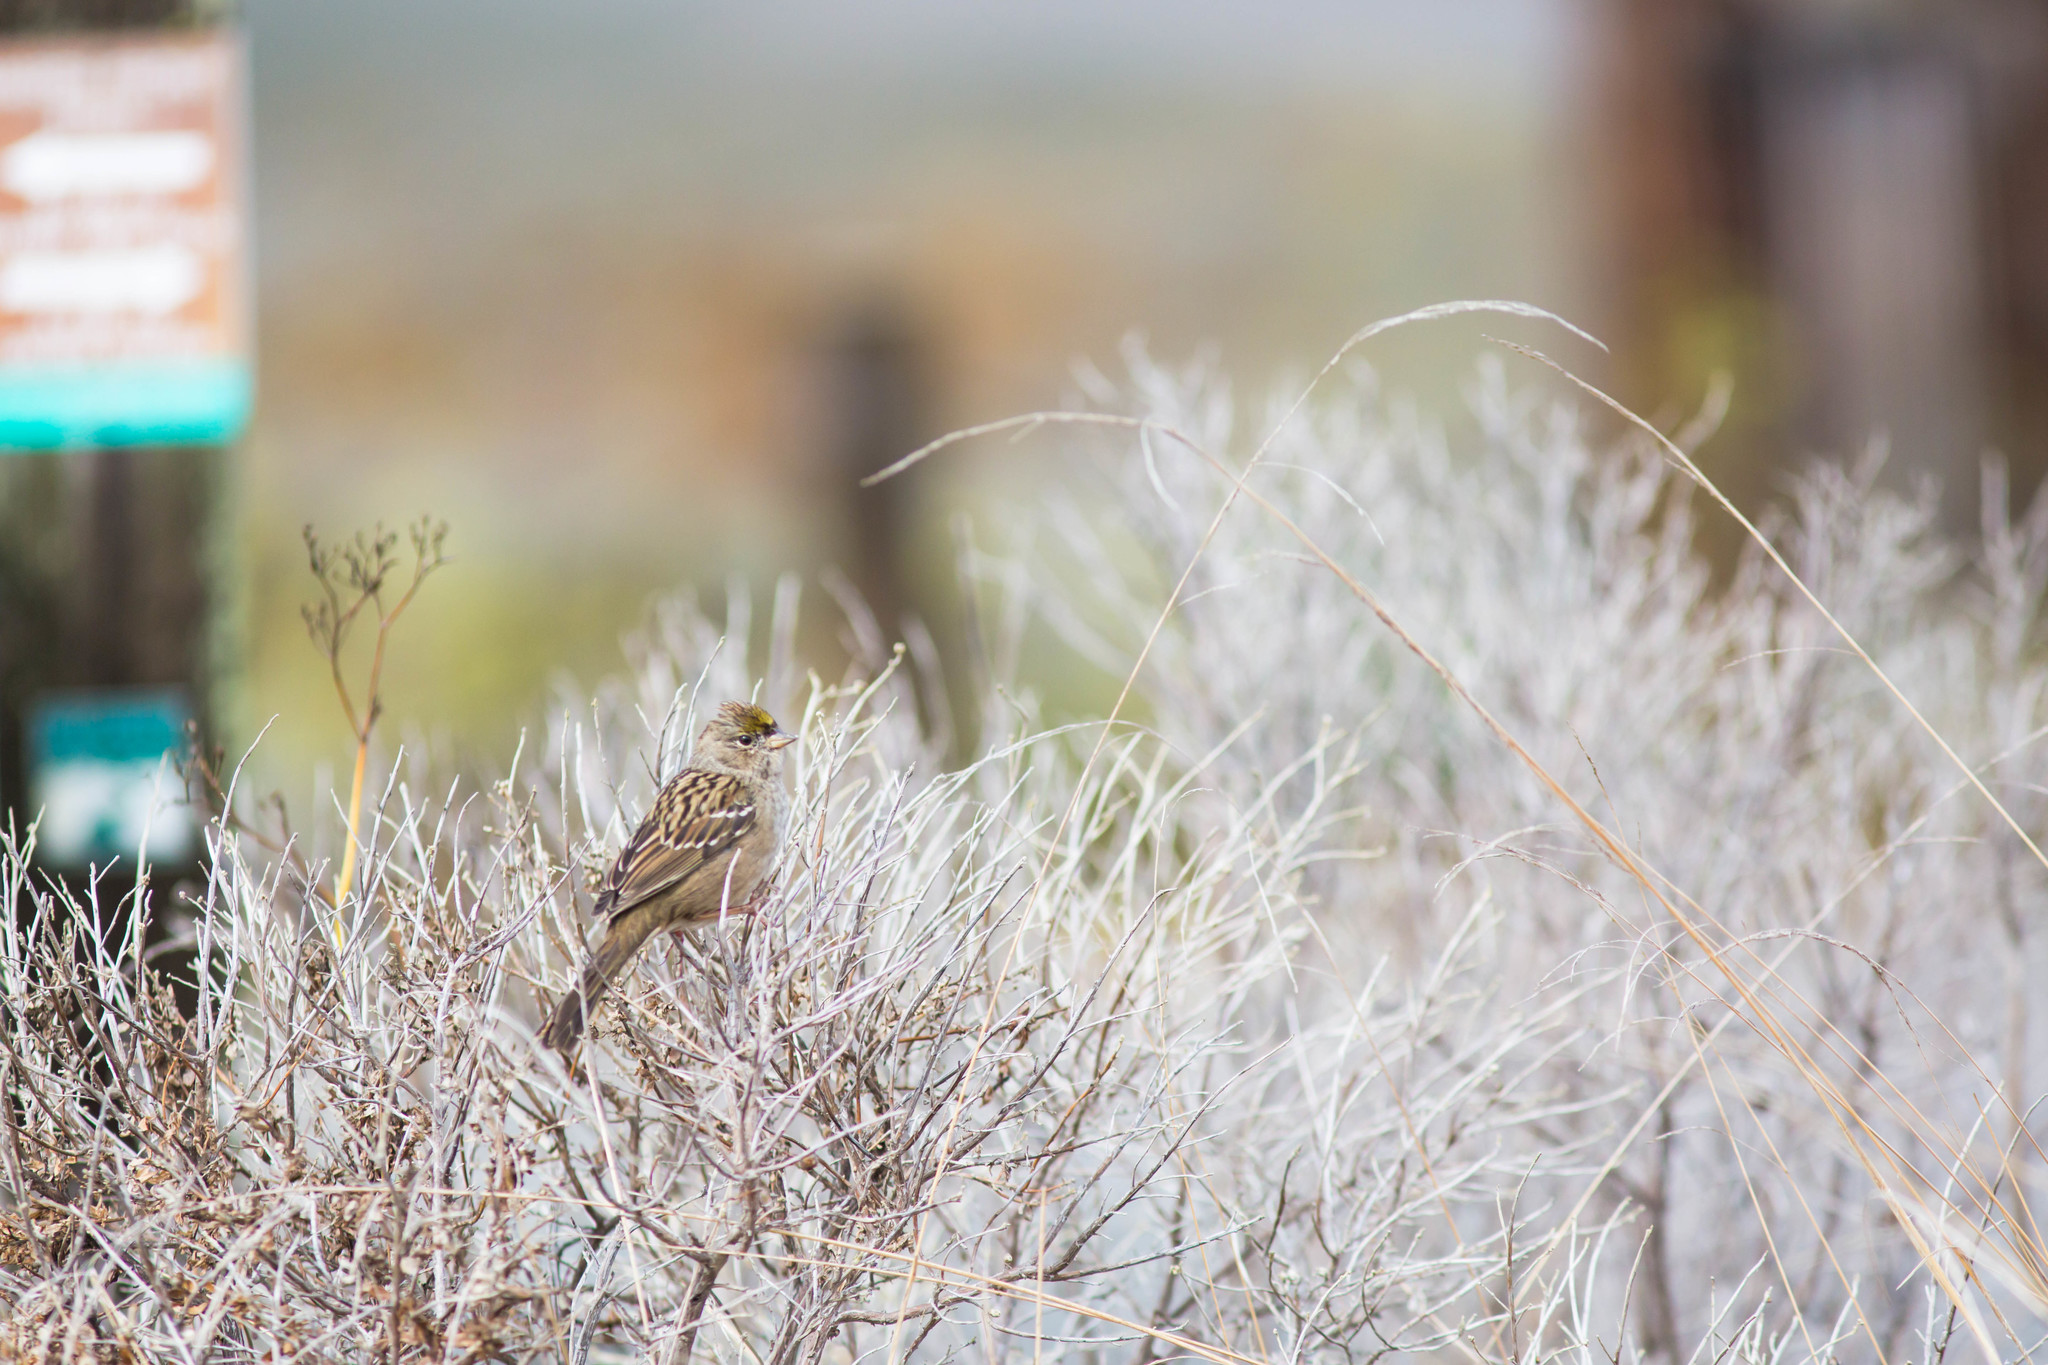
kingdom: Animalia
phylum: Chordata
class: Aves
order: Passeriformes
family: Passerellidae
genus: Zonotrichia
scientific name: Zonotrichia atricapilla
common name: Golden-crowned sparrow
